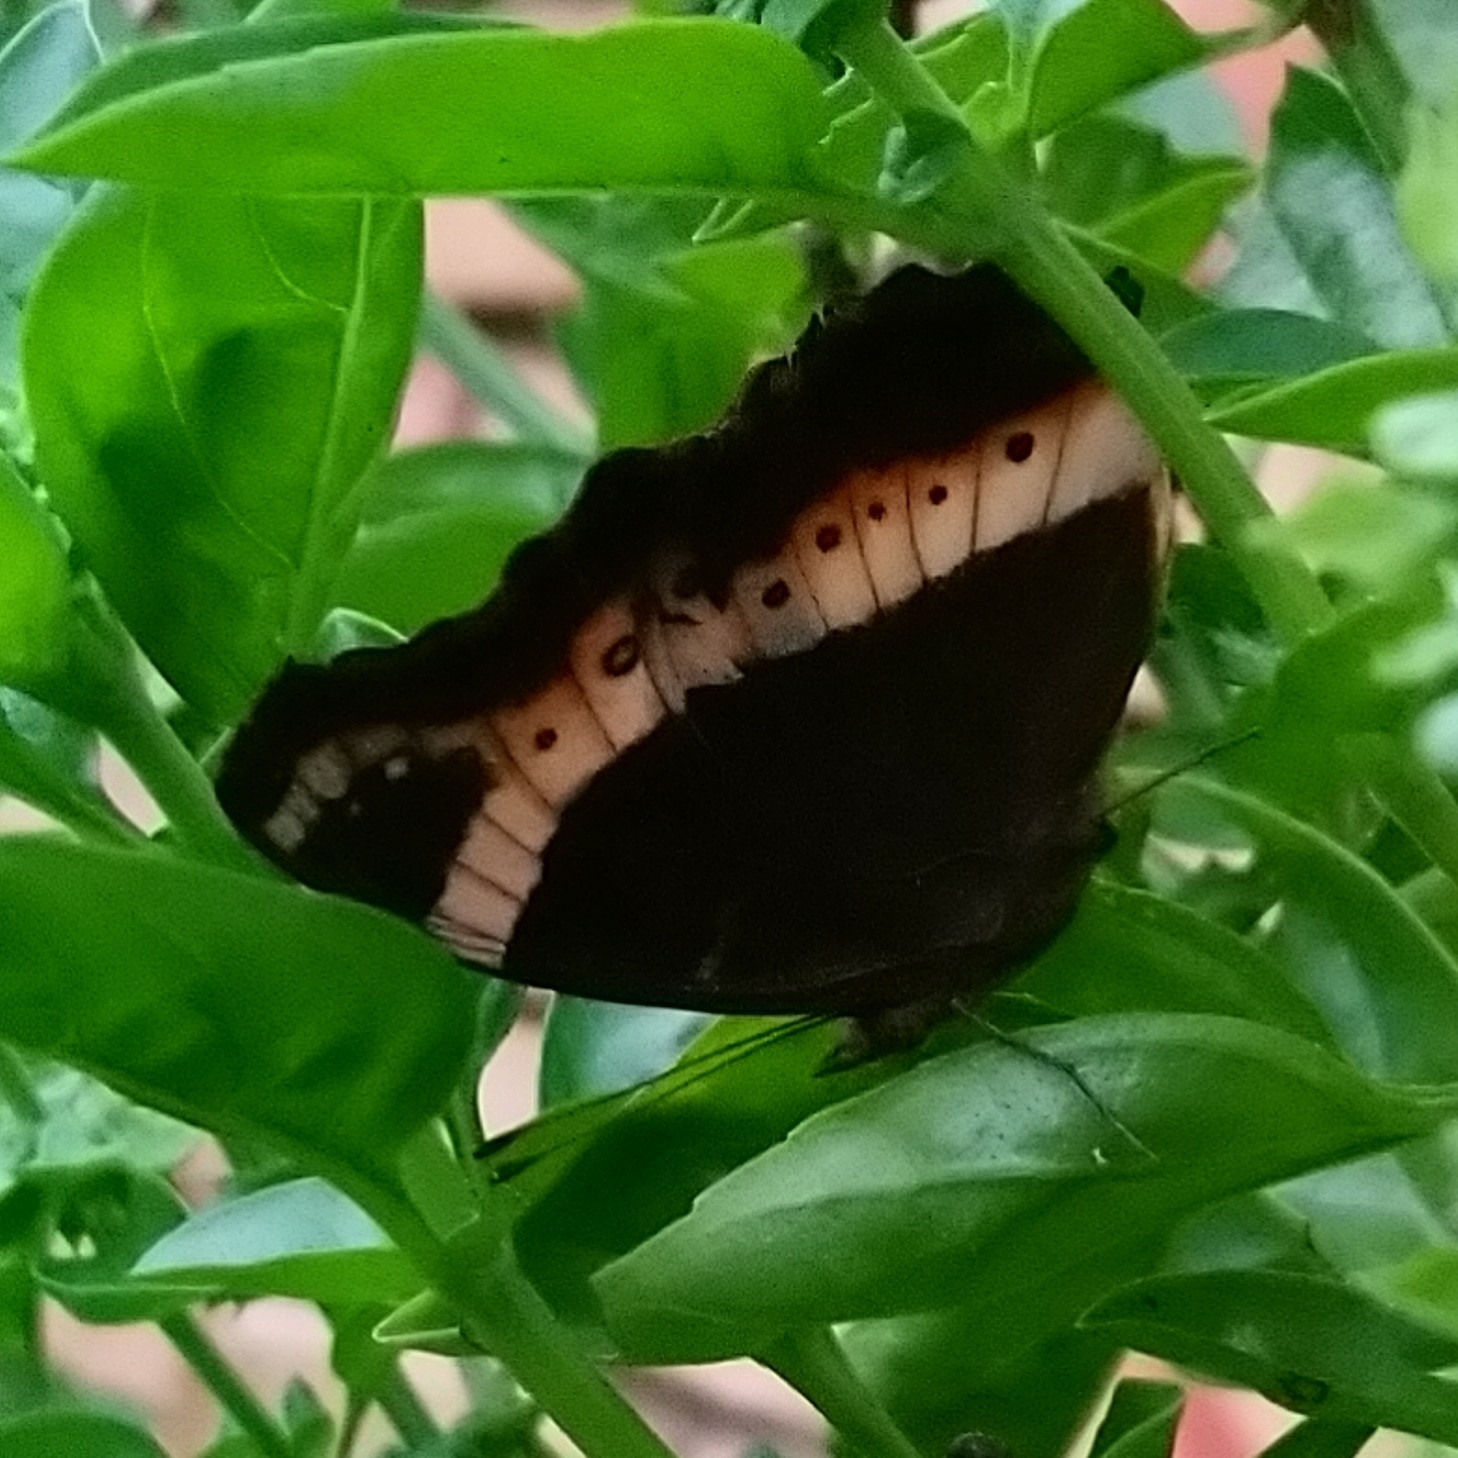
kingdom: Animalia
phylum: Arthropoda
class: Insecta
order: Lepidoptera
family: Nymphalidae
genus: Junonia
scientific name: Junonia archesia
